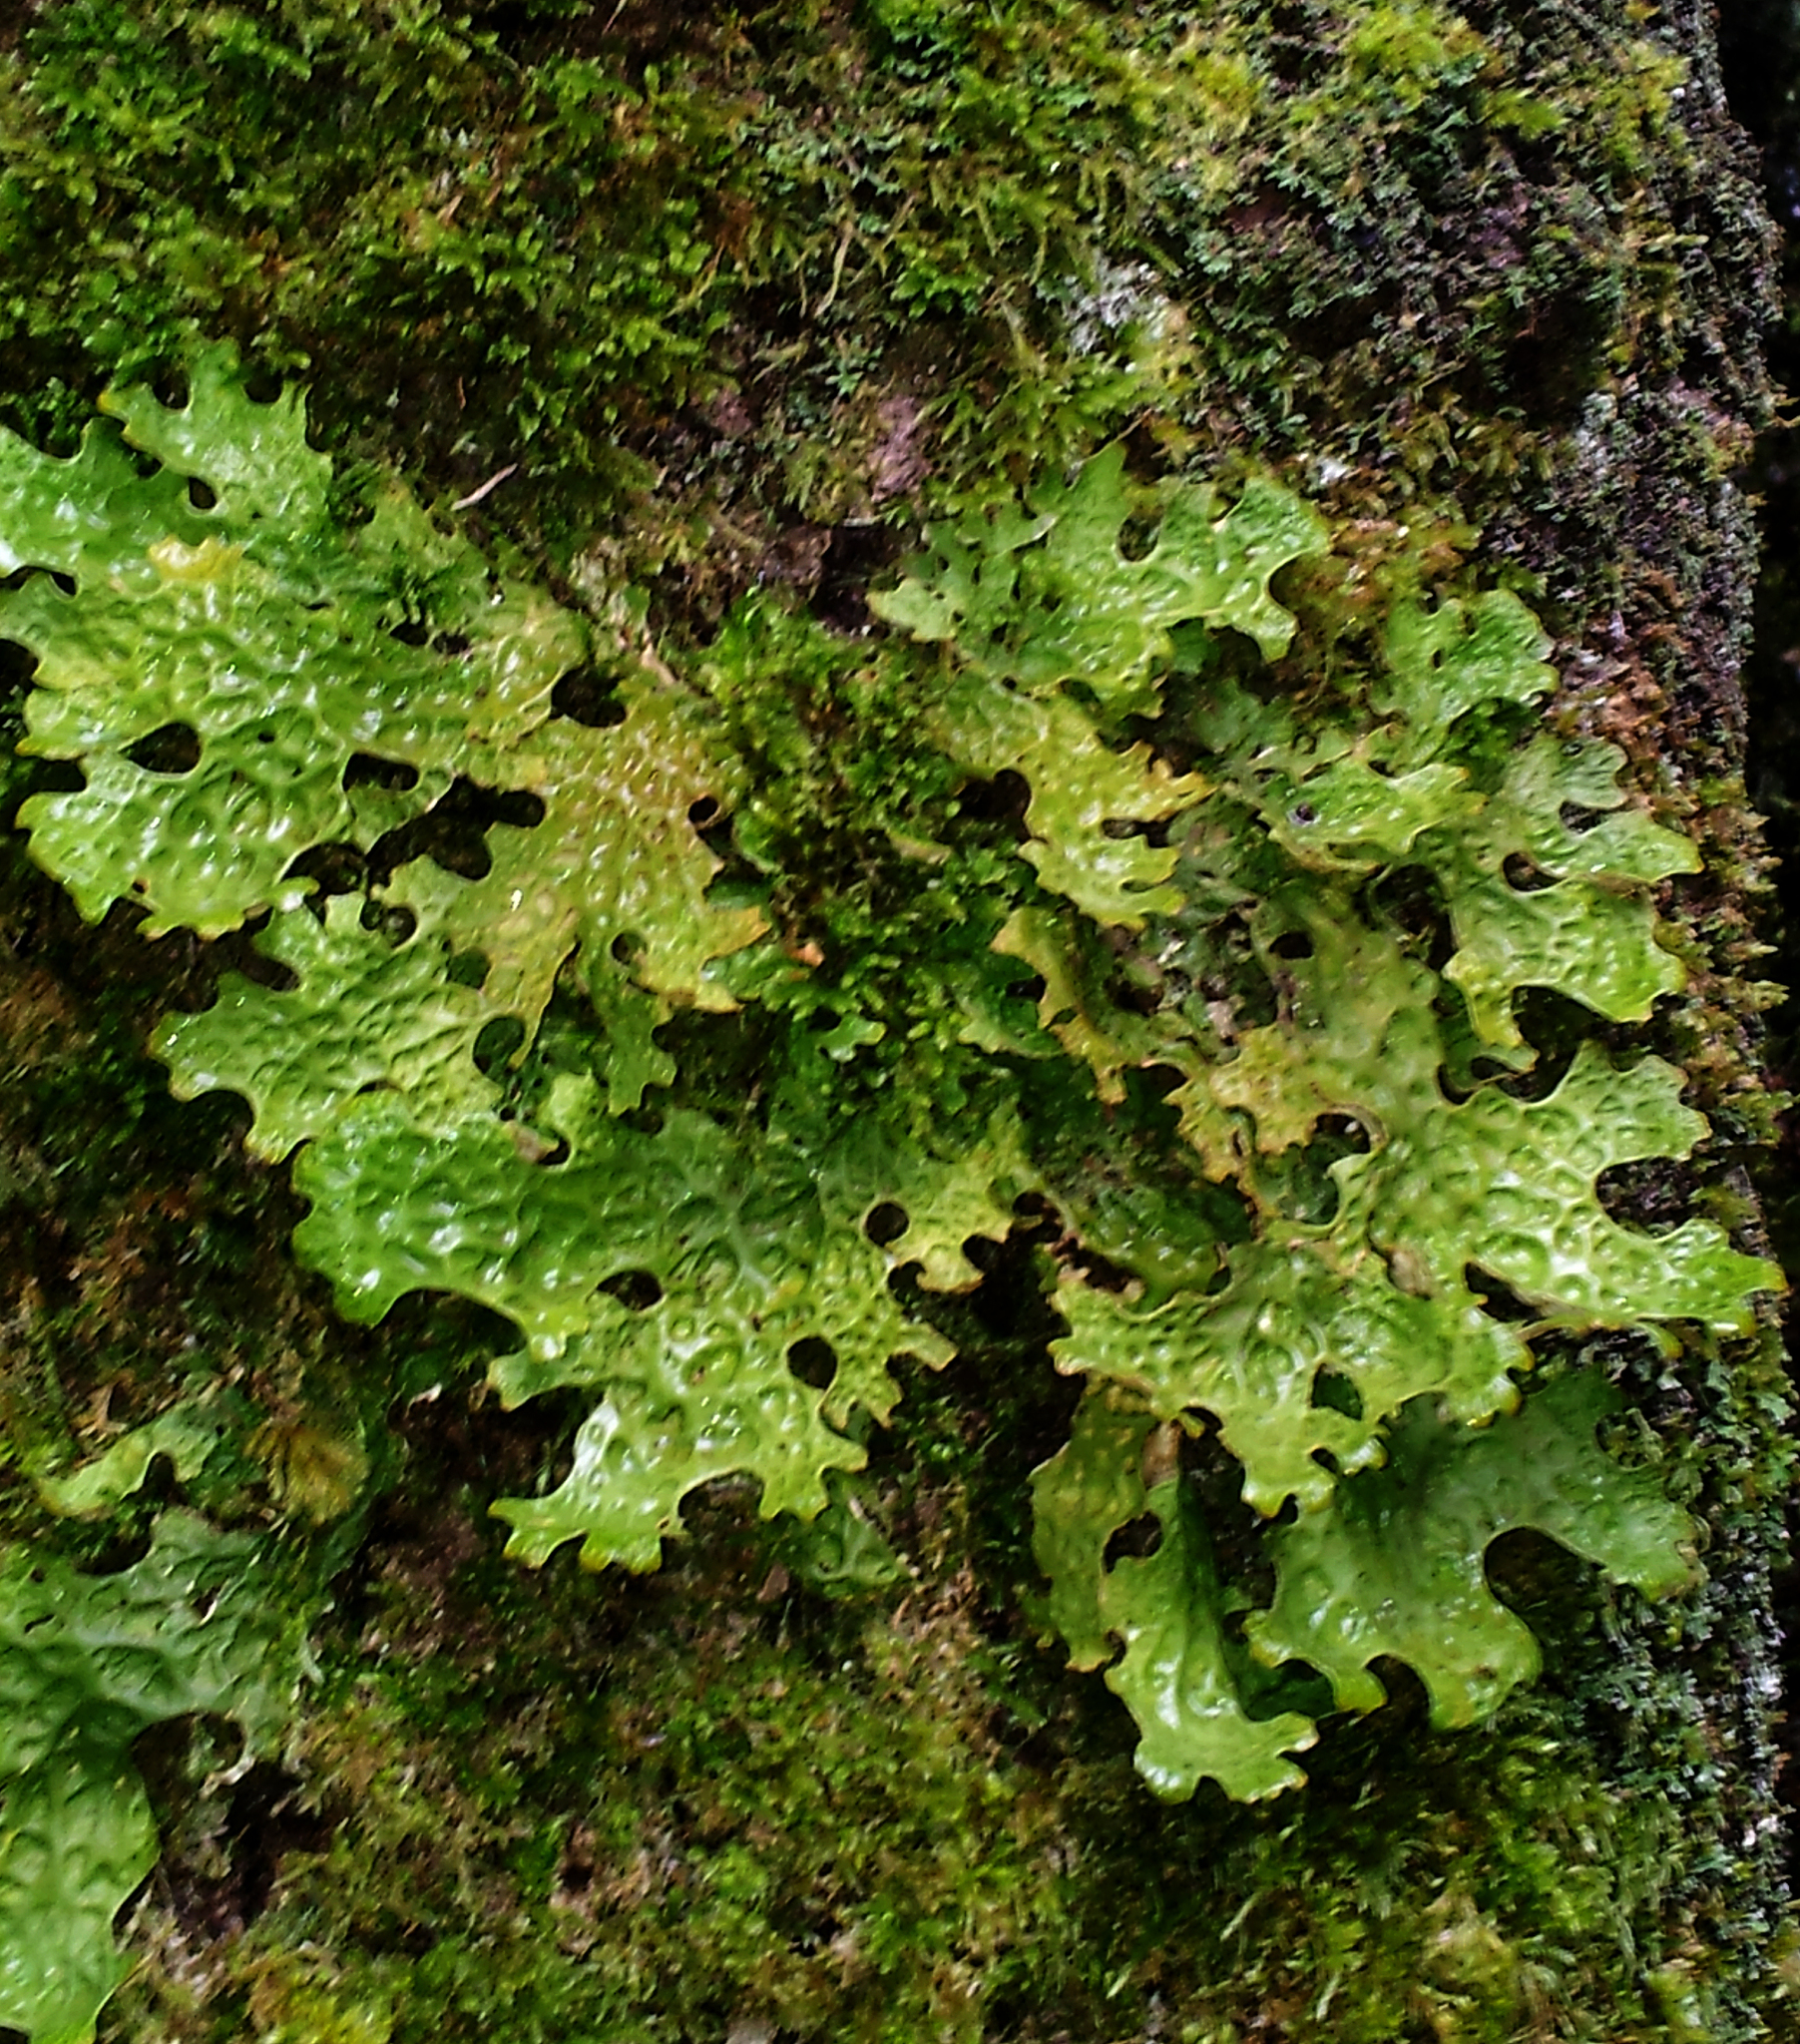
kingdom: Fungi
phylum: Ascomycota
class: Lecanoromycetes
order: Peltigerales
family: Lobariaceae
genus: Lobaria
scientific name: Lobaria pulmonaria
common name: Lungwort
